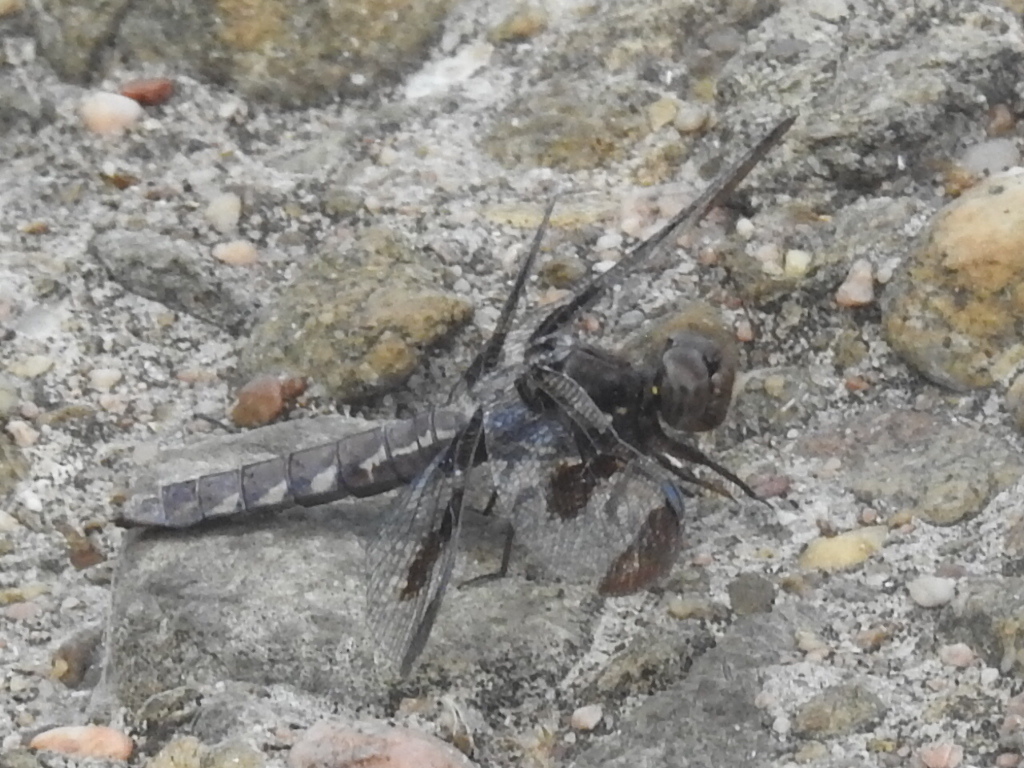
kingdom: Animalia
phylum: Arthropoda
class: Insecta
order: Odonata
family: Libellulidae
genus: Plathemis
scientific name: Plathemis lydia
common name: Common whitetail
